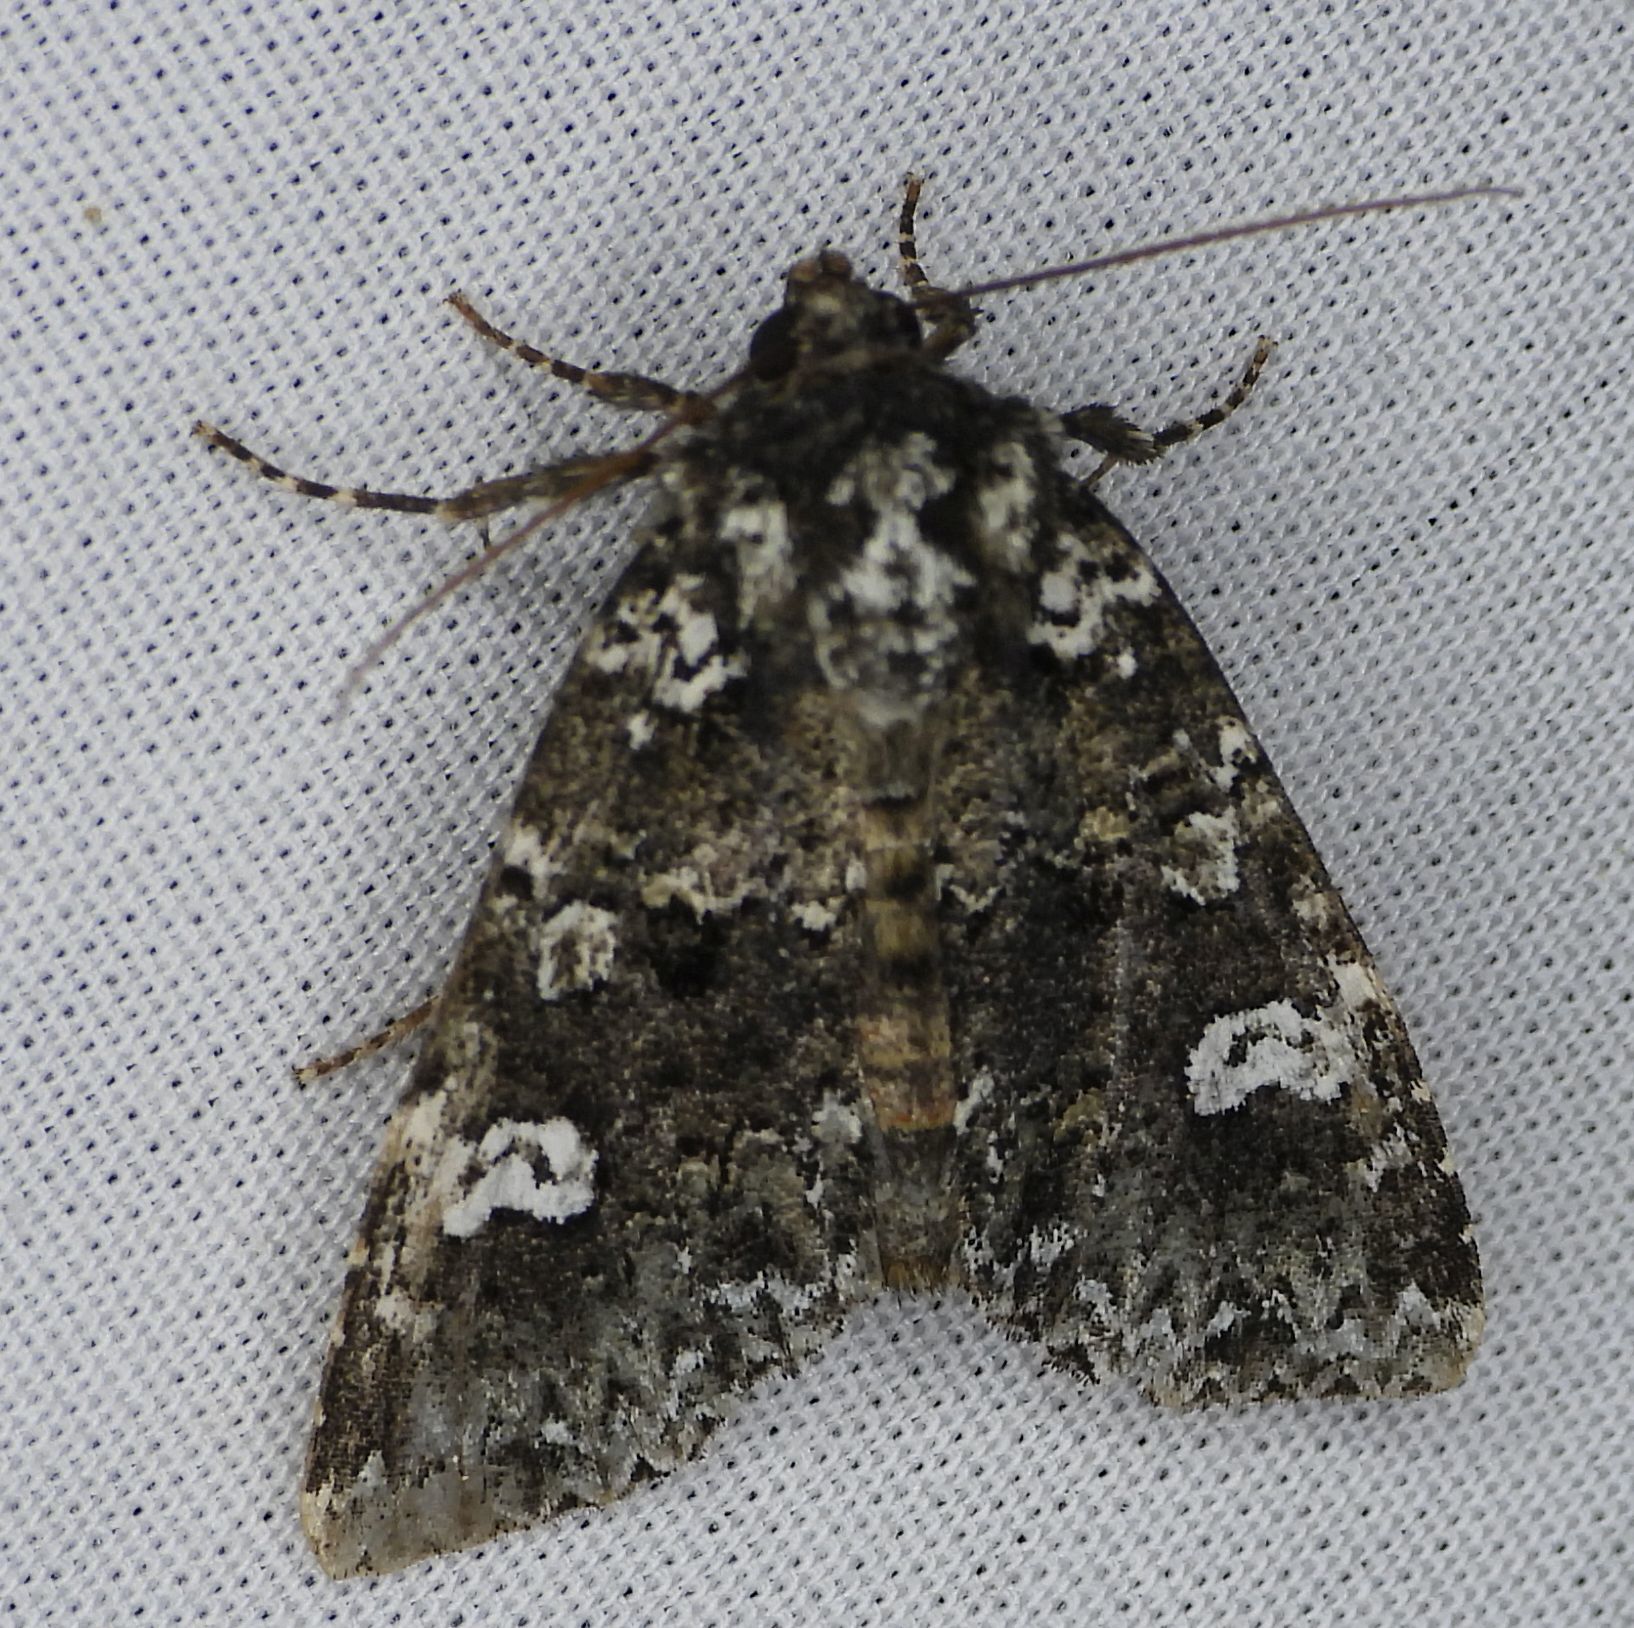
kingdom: Animalia
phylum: Arthropoda
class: Insecta
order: Lepidoptera
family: Noctuidae
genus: Melanchra
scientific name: Melanchra adjuncta
